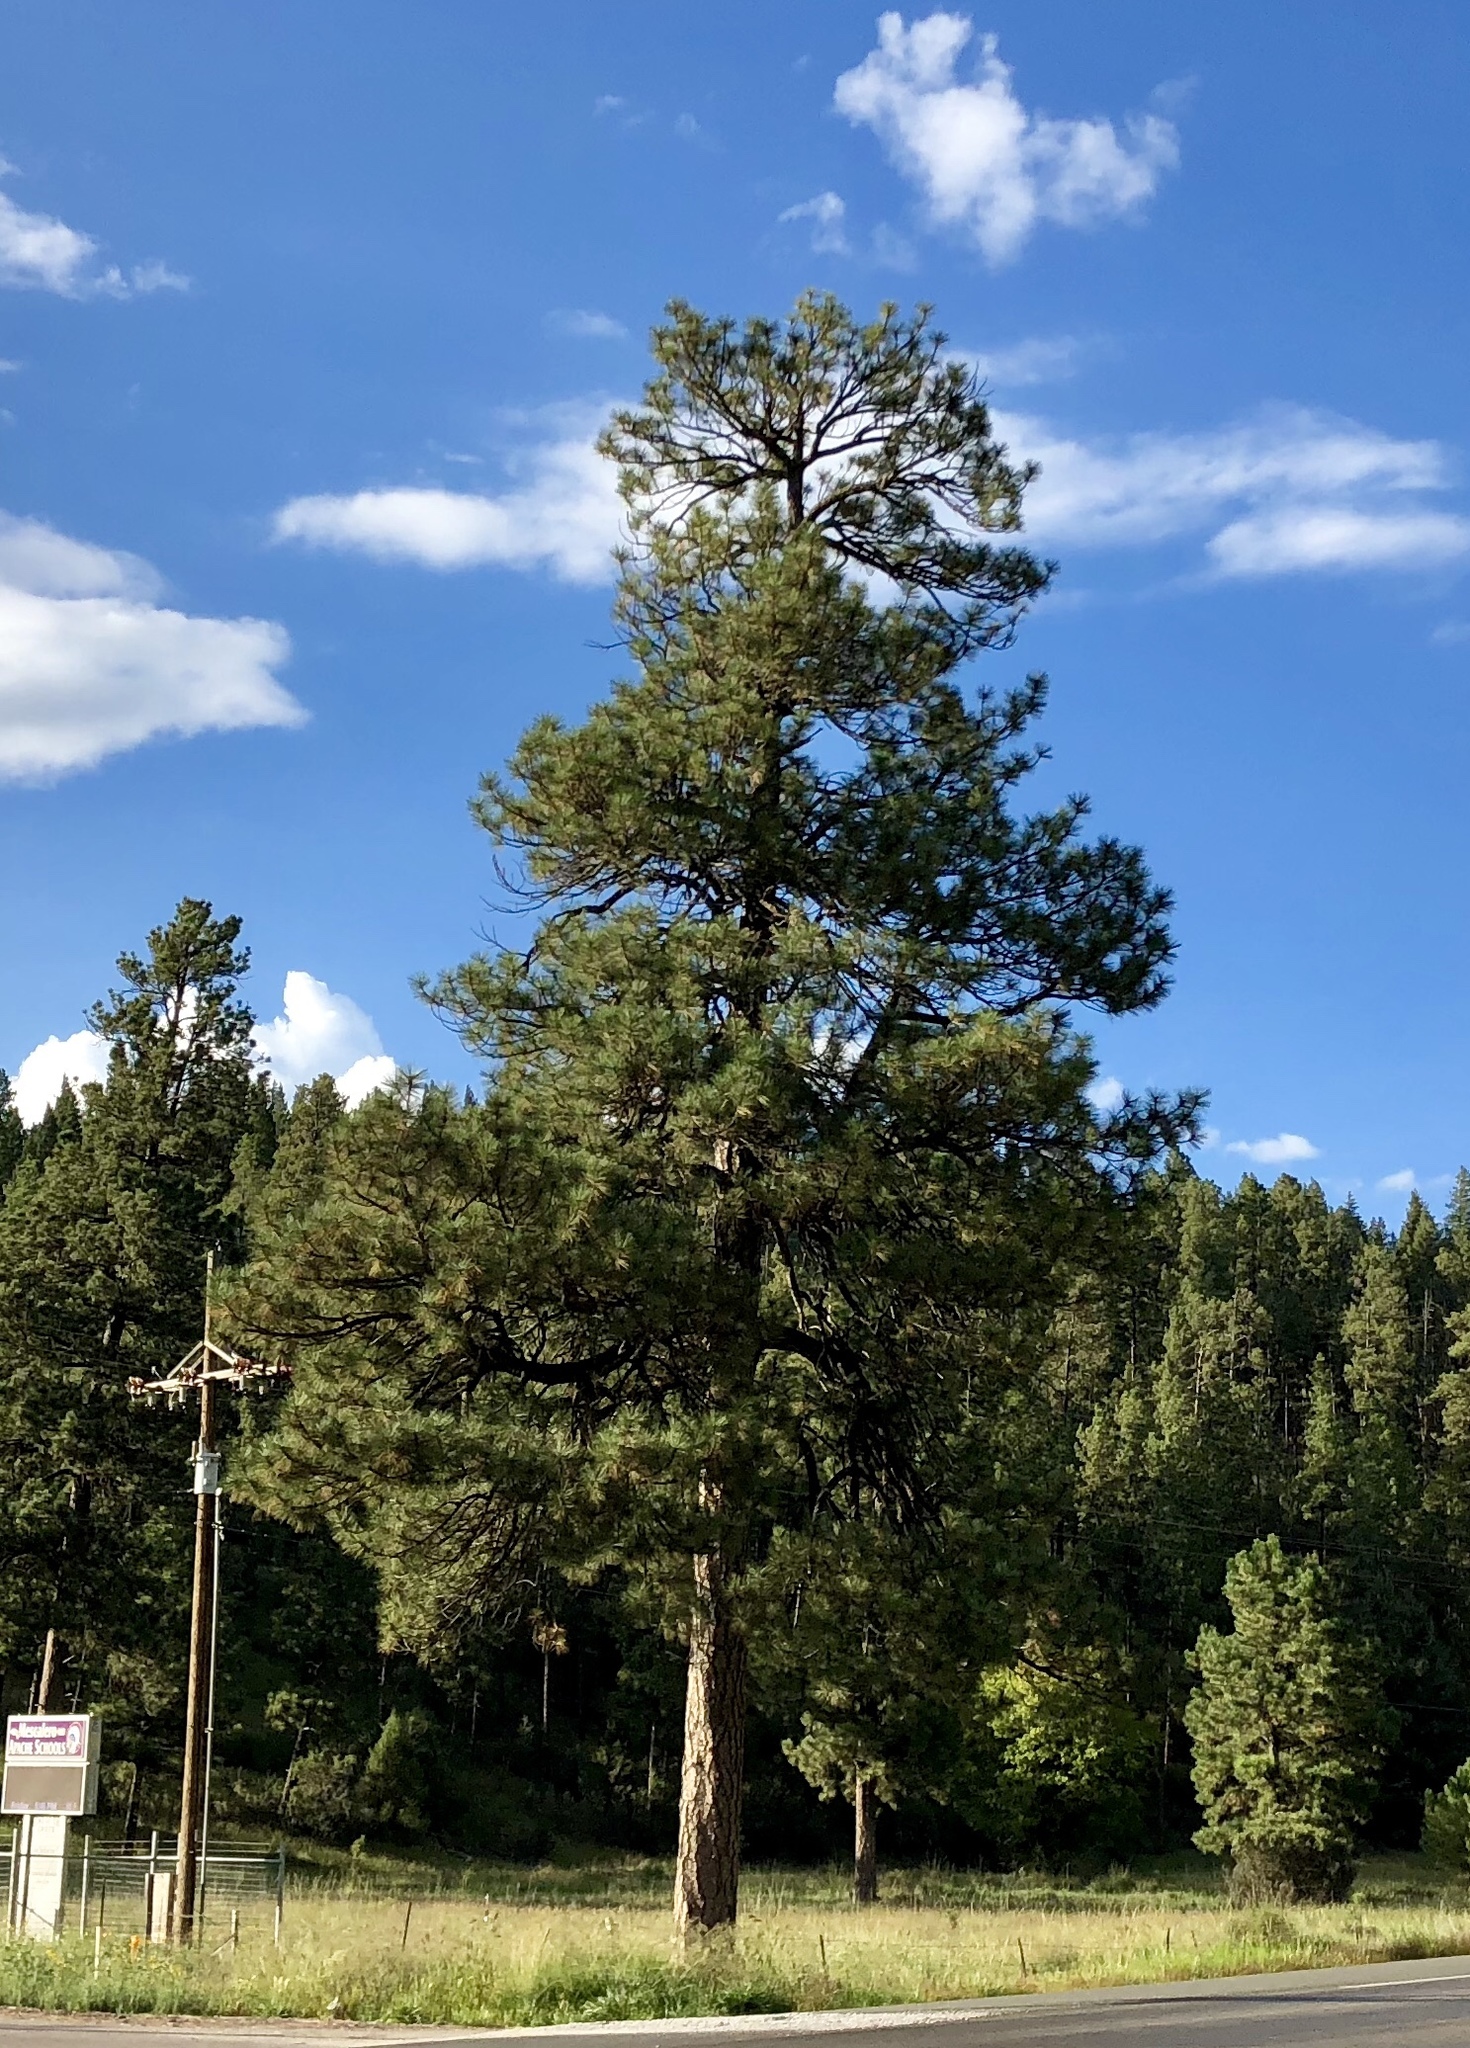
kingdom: Plantae
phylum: Tracheophyta
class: Pinopsida
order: Pinales
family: Pinaceae
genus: Pinus
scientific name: Pinus ponderosa
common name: Western yellow-pine
